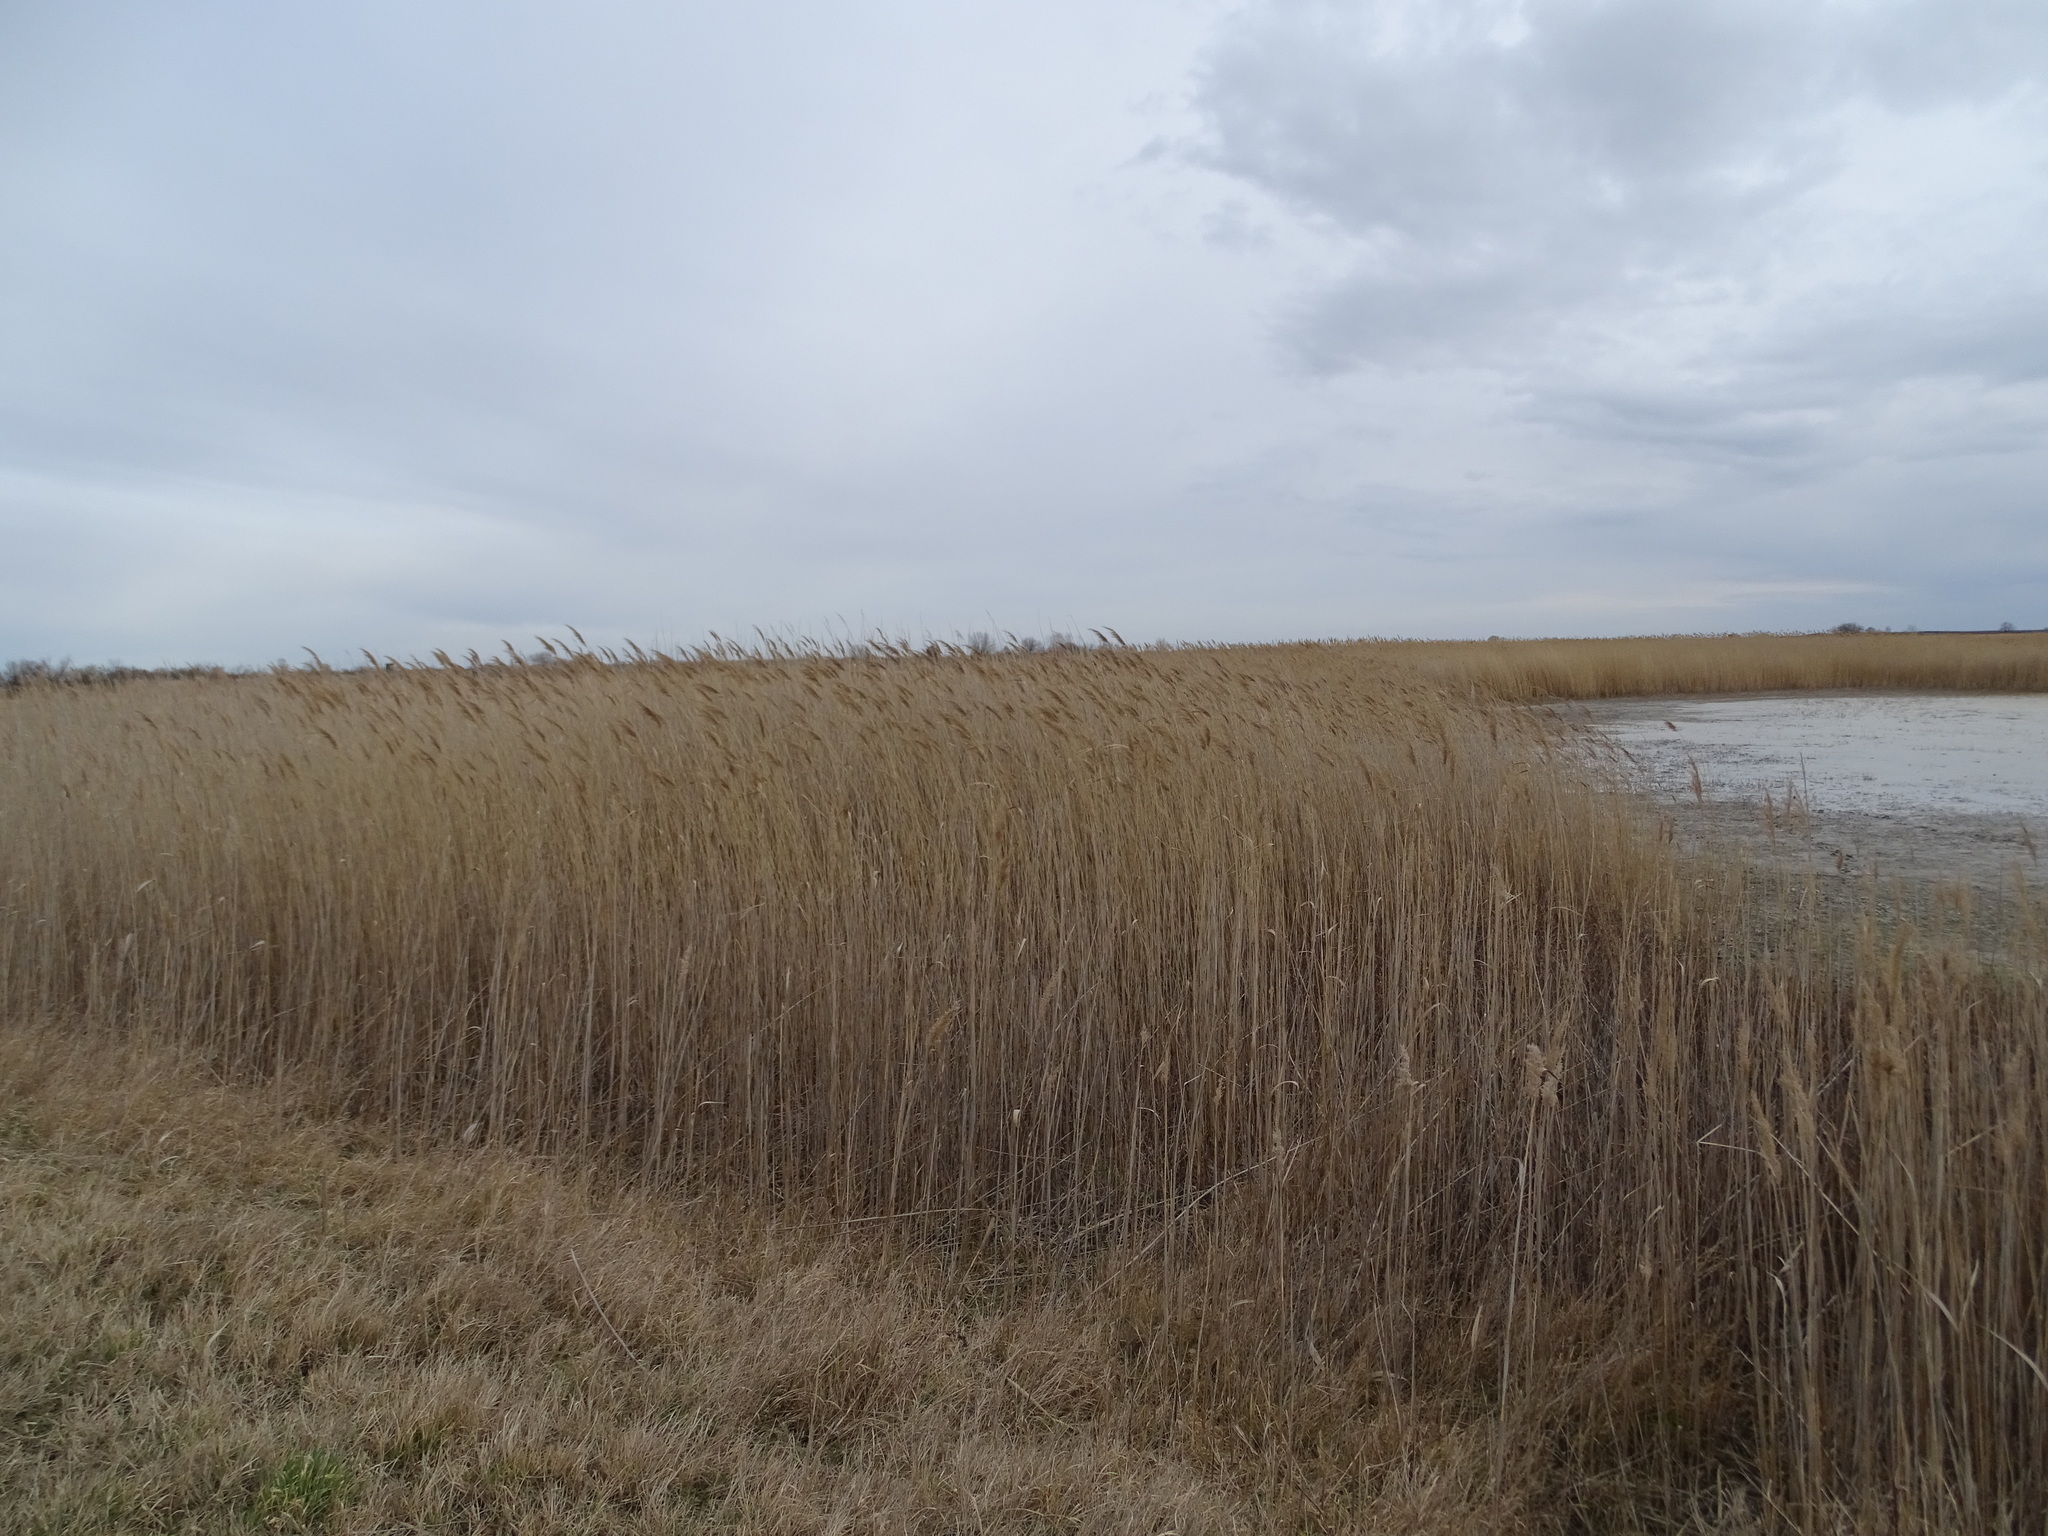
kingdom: Plantae
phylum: Tracheophyta
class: Liliopsida
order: Poales
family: Poaceae
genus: Phragmites
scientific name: Phragmites australis
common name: Common reed
